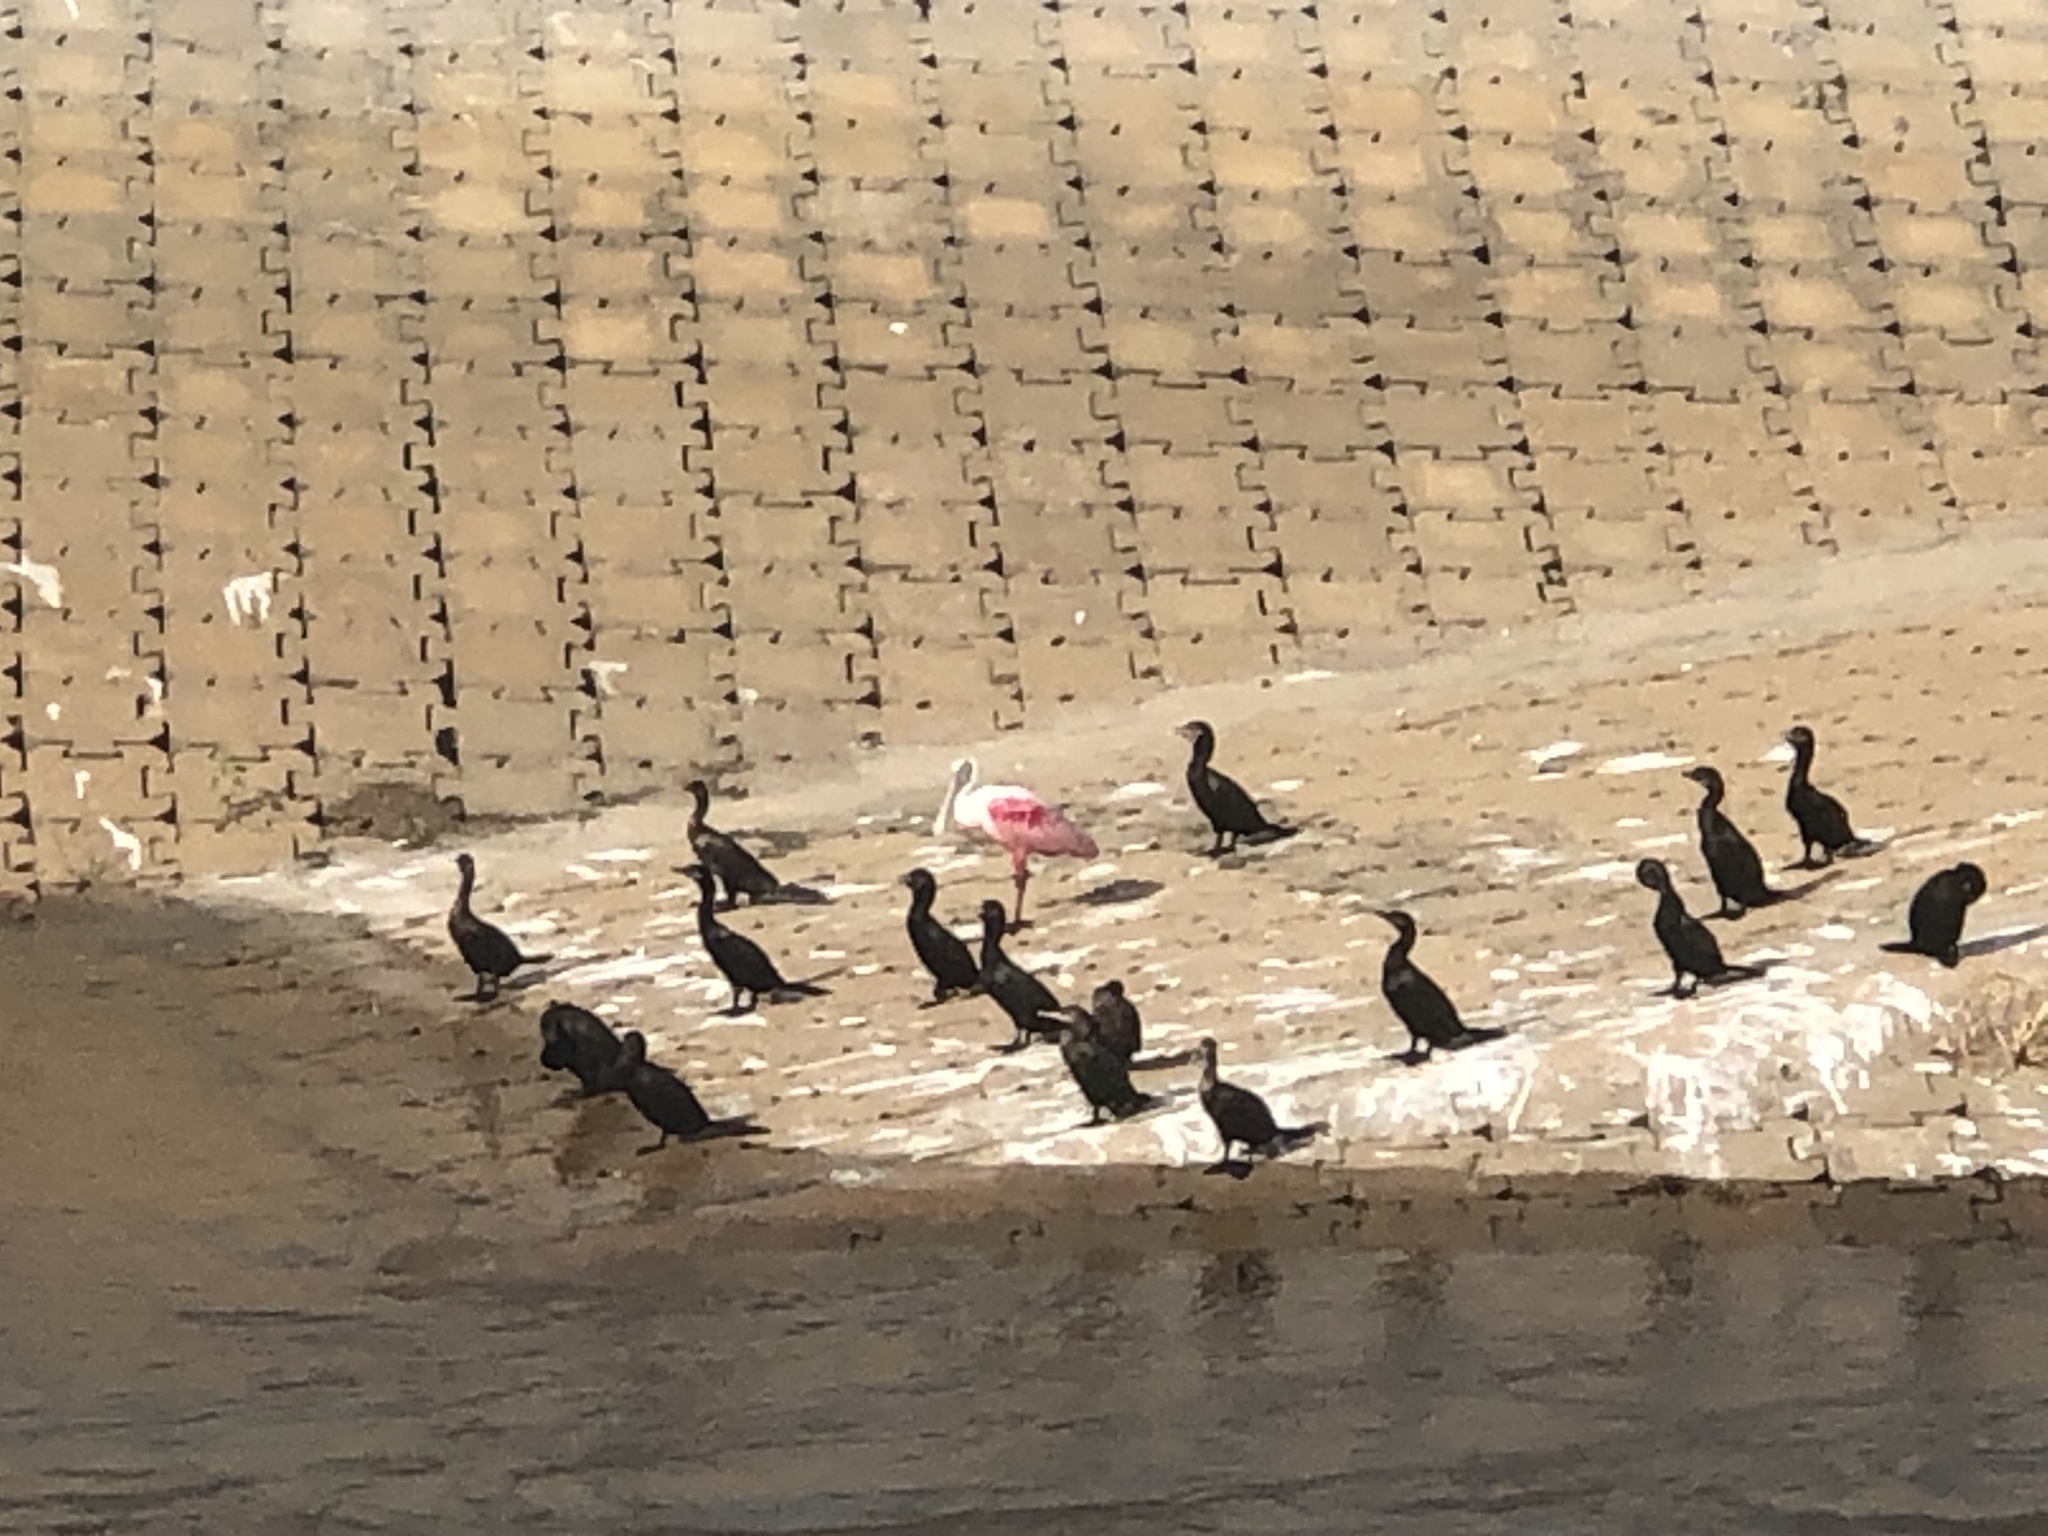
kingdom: Animalia
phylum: Chordata
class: Aves
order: Pelecaniformes
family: Threskiornithidae
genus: Platalea
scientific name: Platalea ajaja
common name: Roseate spoonbill
